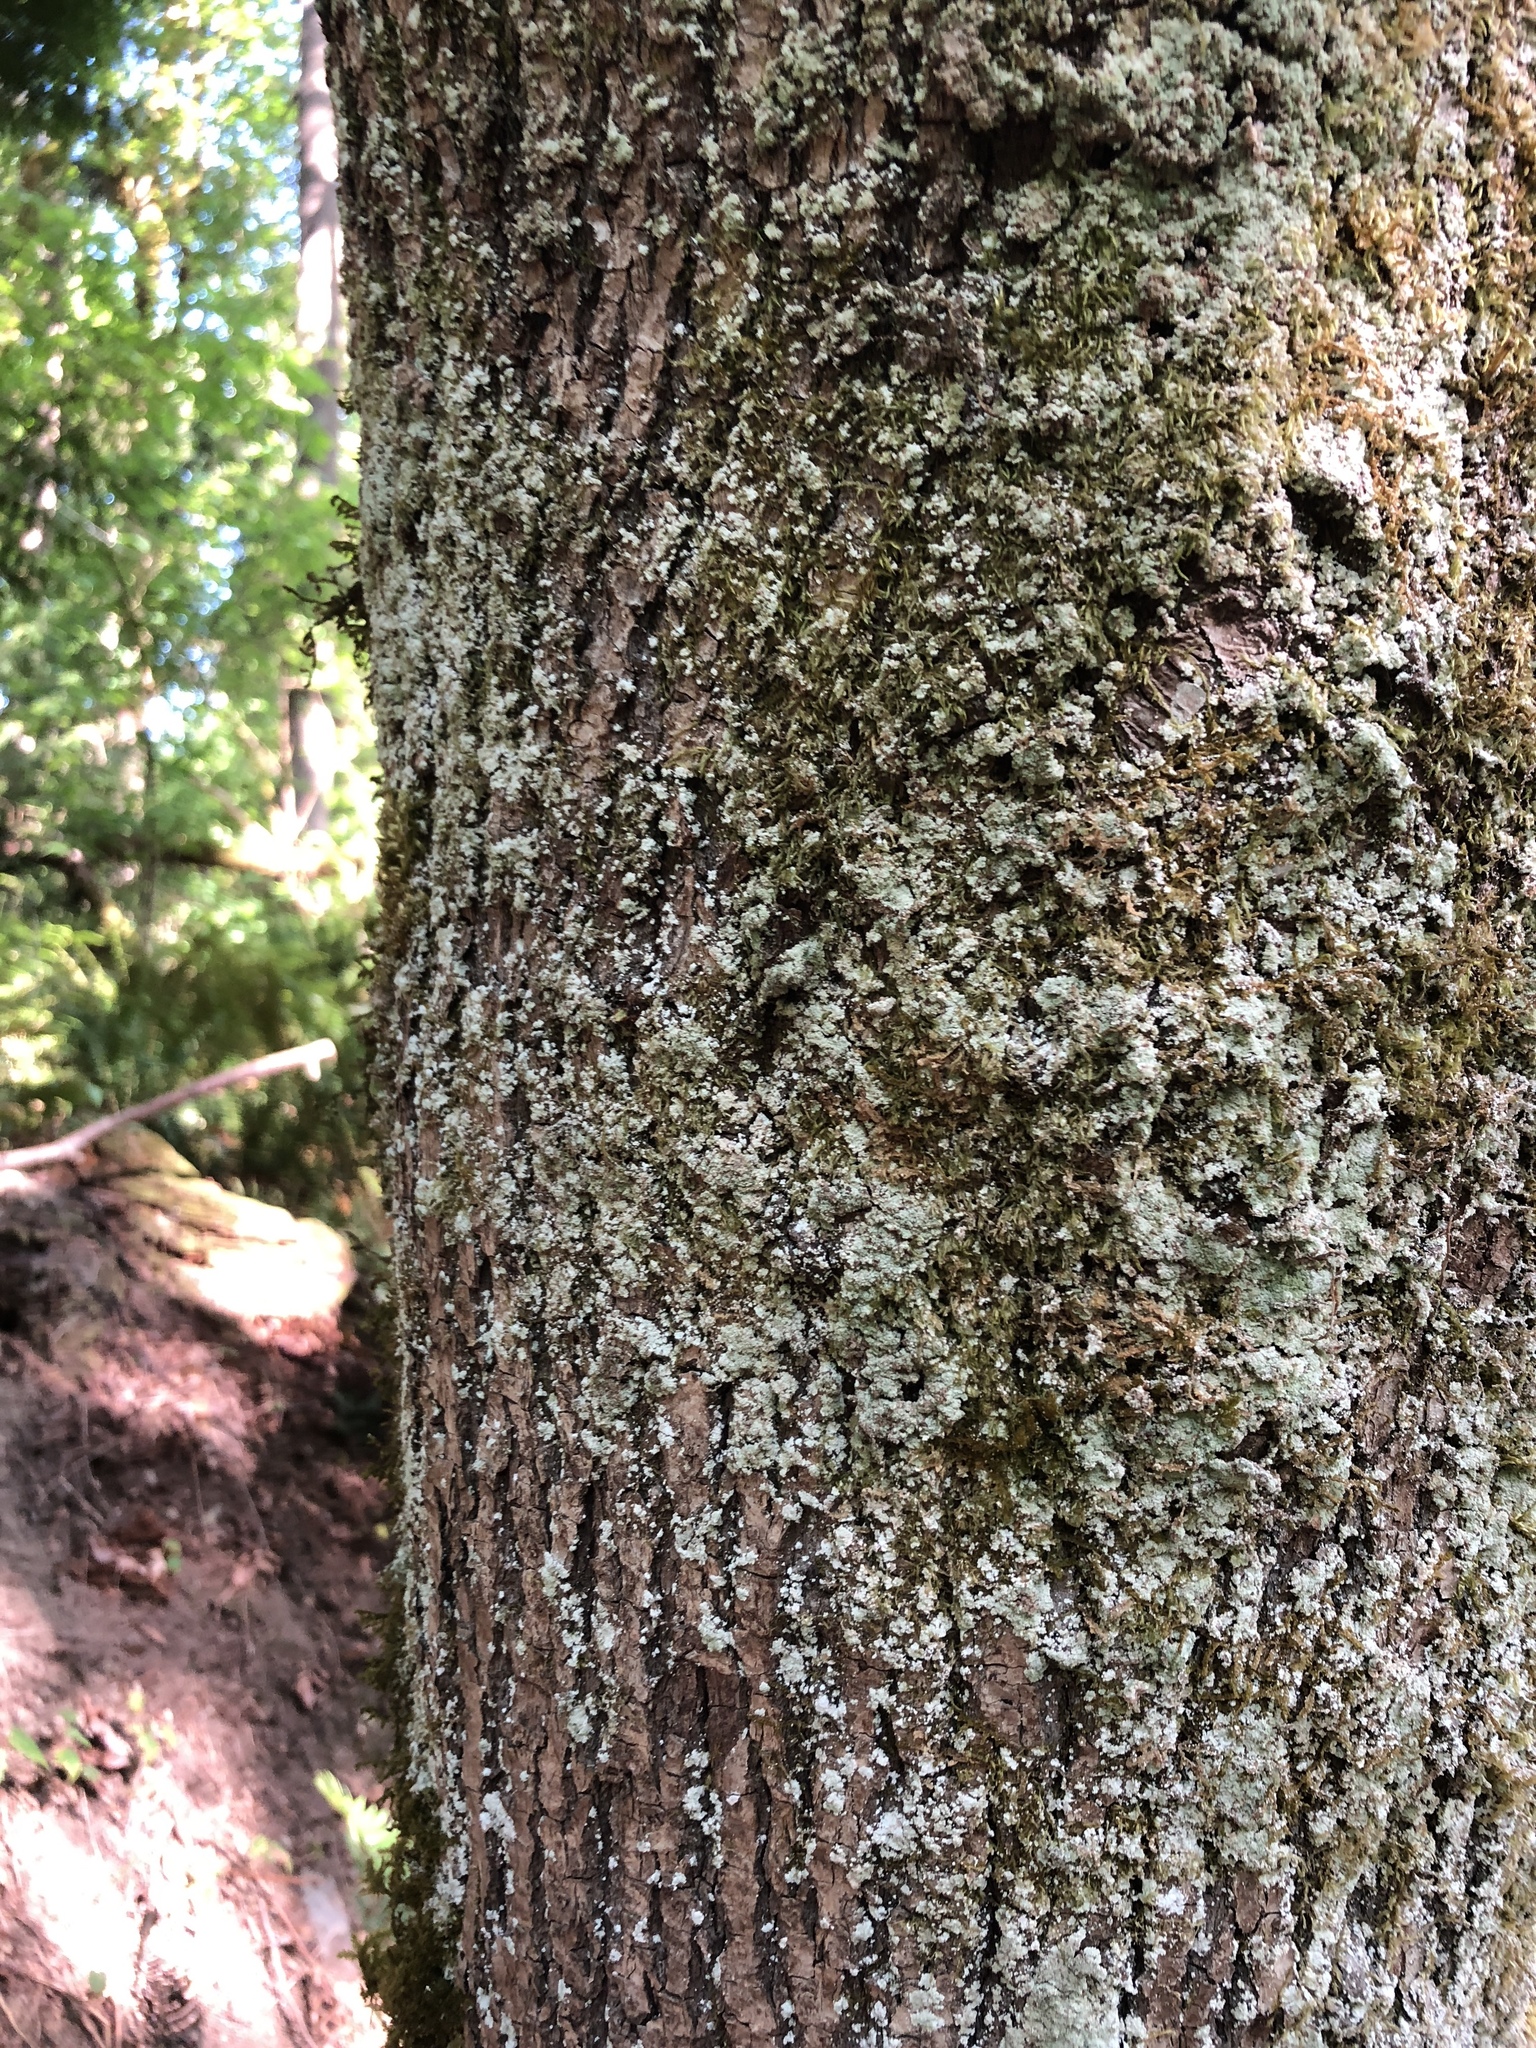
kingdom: Plantae
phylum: Tracheophyta
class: Magnoliopsida
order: Sapindales
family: Sapindaceae
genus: Acer
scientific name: Acer macrophyllum
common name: Oregon maple
